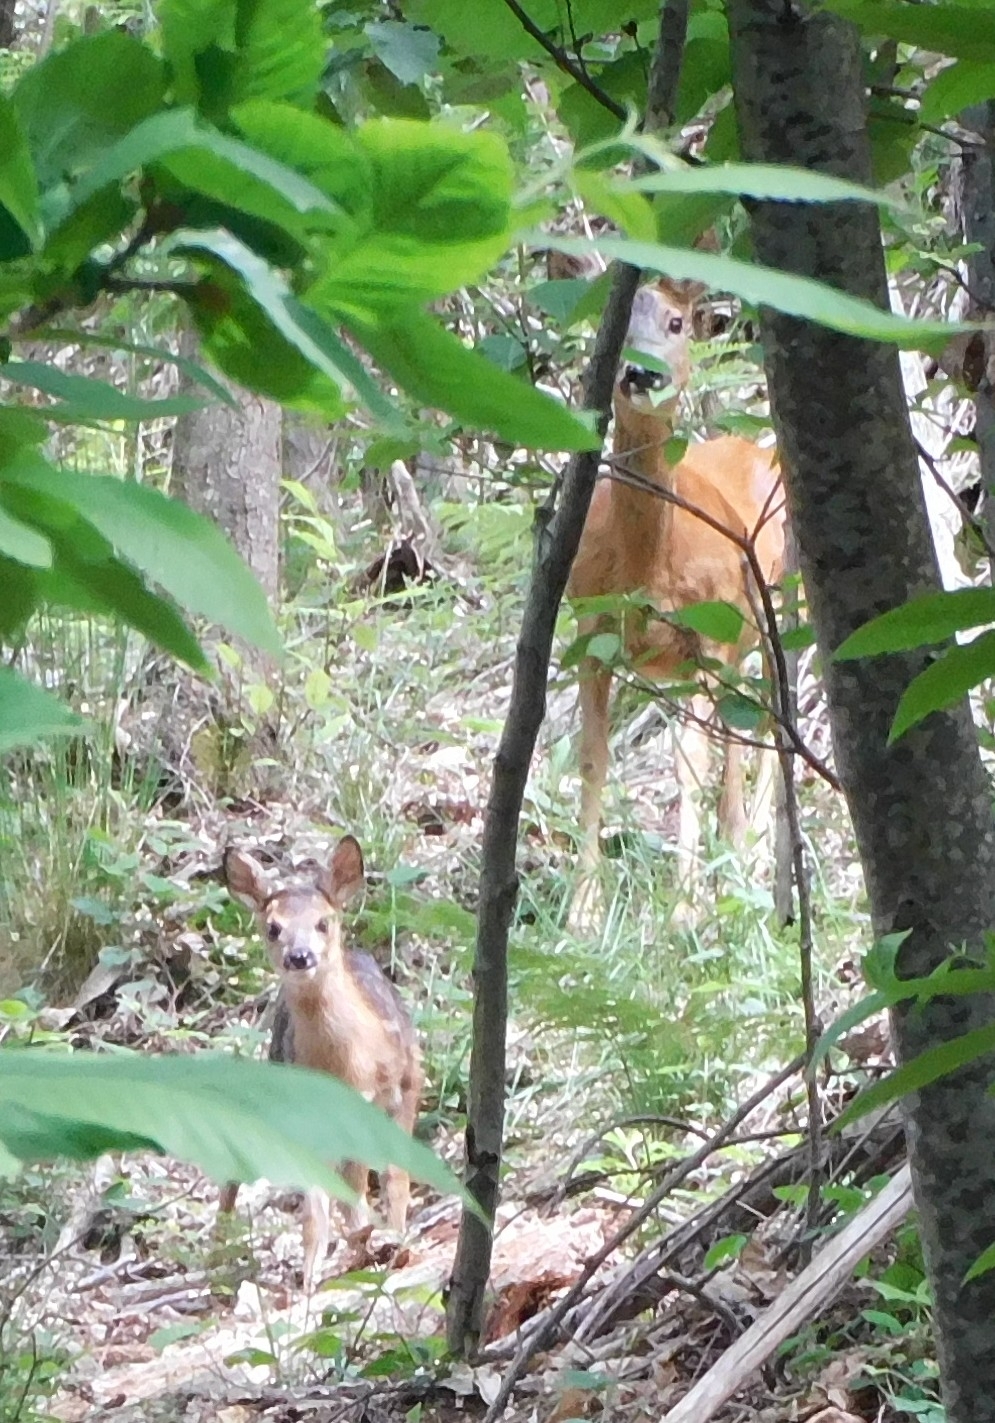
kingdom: Animalia
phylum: Chordata
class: Mammalia
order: Artiodactyla
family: Cervidae
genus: Capreolus
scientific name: Capreolus capreolus
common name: Western roe deer
